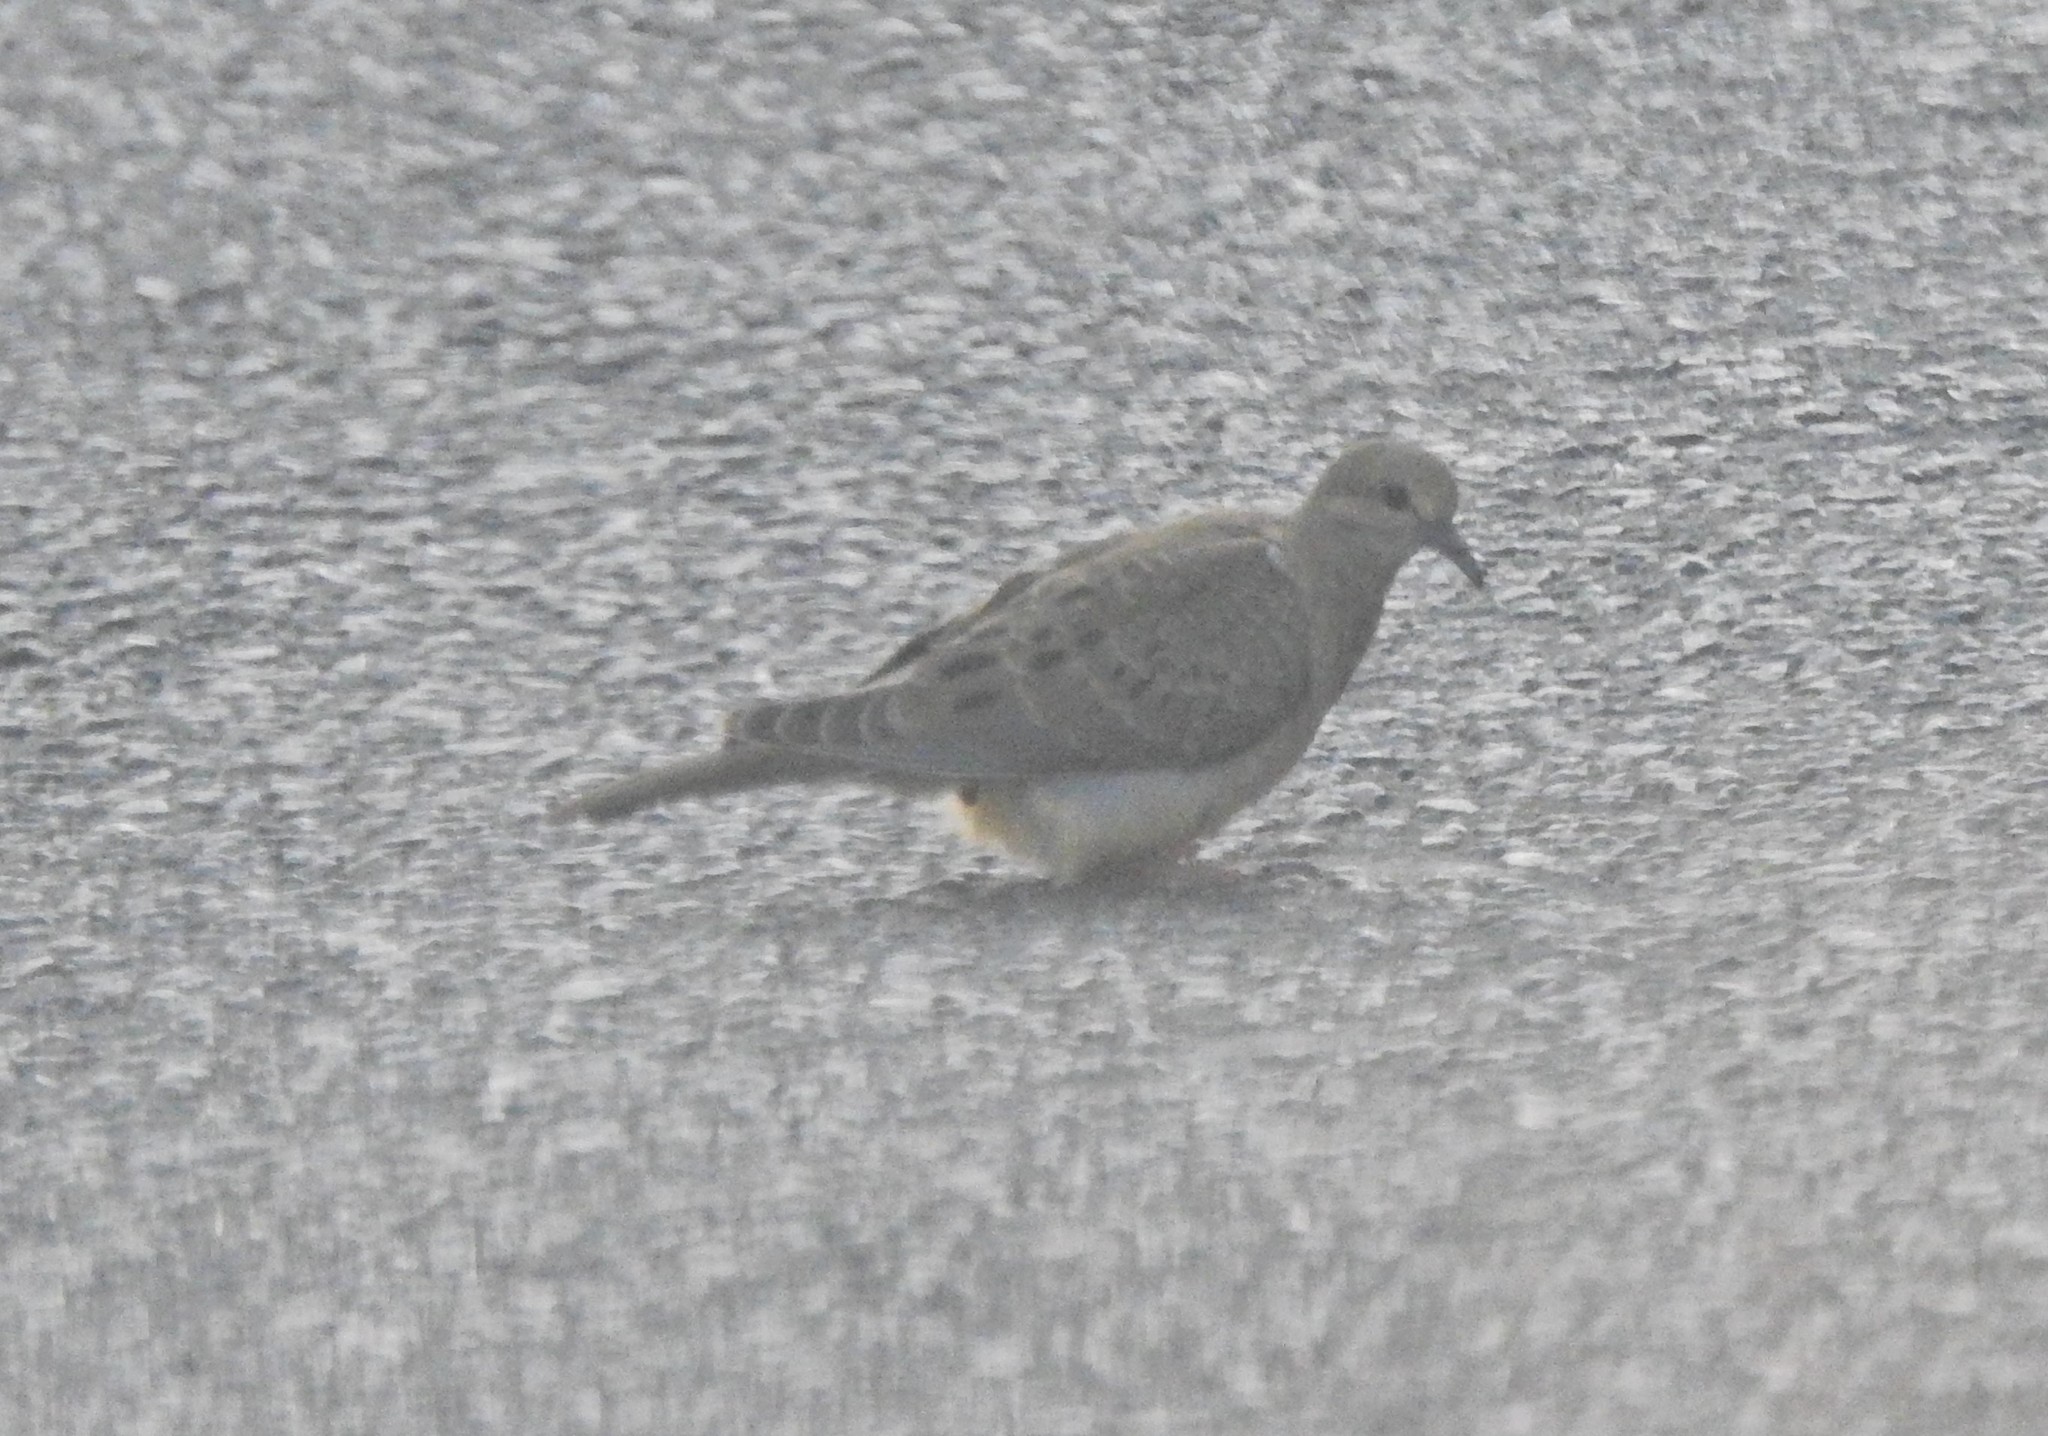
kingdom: Animalia
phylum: Chordata
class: Aves
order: Columbiformes
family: Columbidae
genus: Columbina
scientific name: Columbina passerina
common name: Common ground-dove
